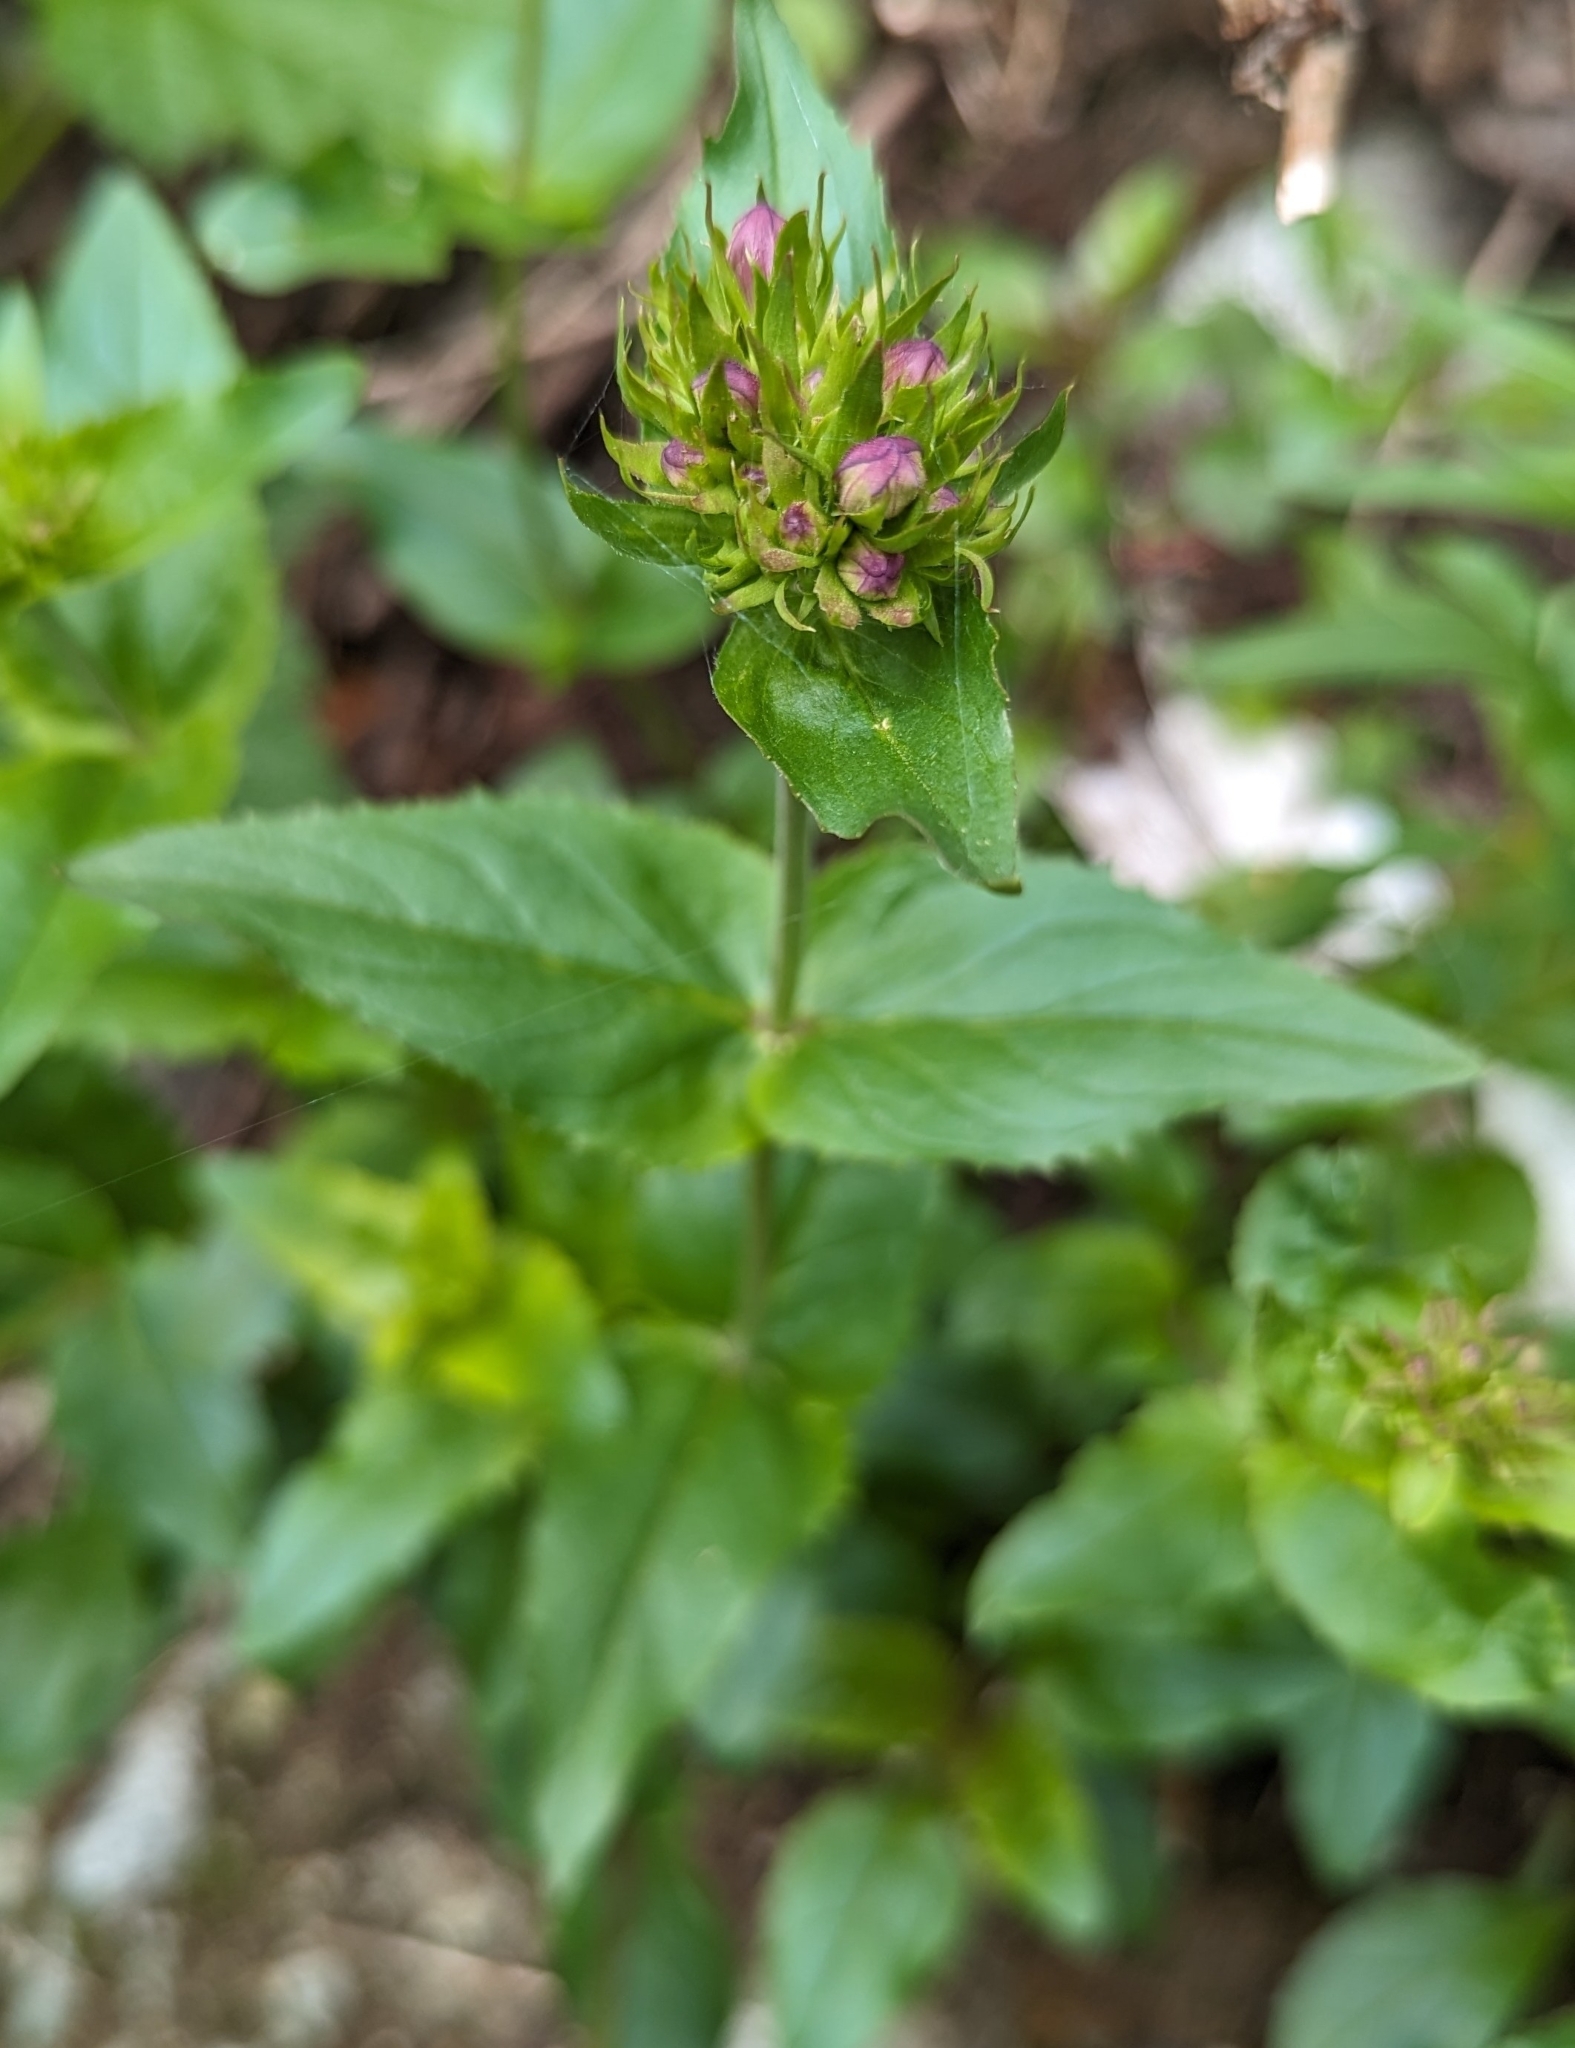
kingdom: Plantae
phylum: Tracheophyta
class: Magnoliopsida
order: Lamiales
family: Plantaginaceae
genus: Penstemon
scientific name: Penstemon serrulatus
